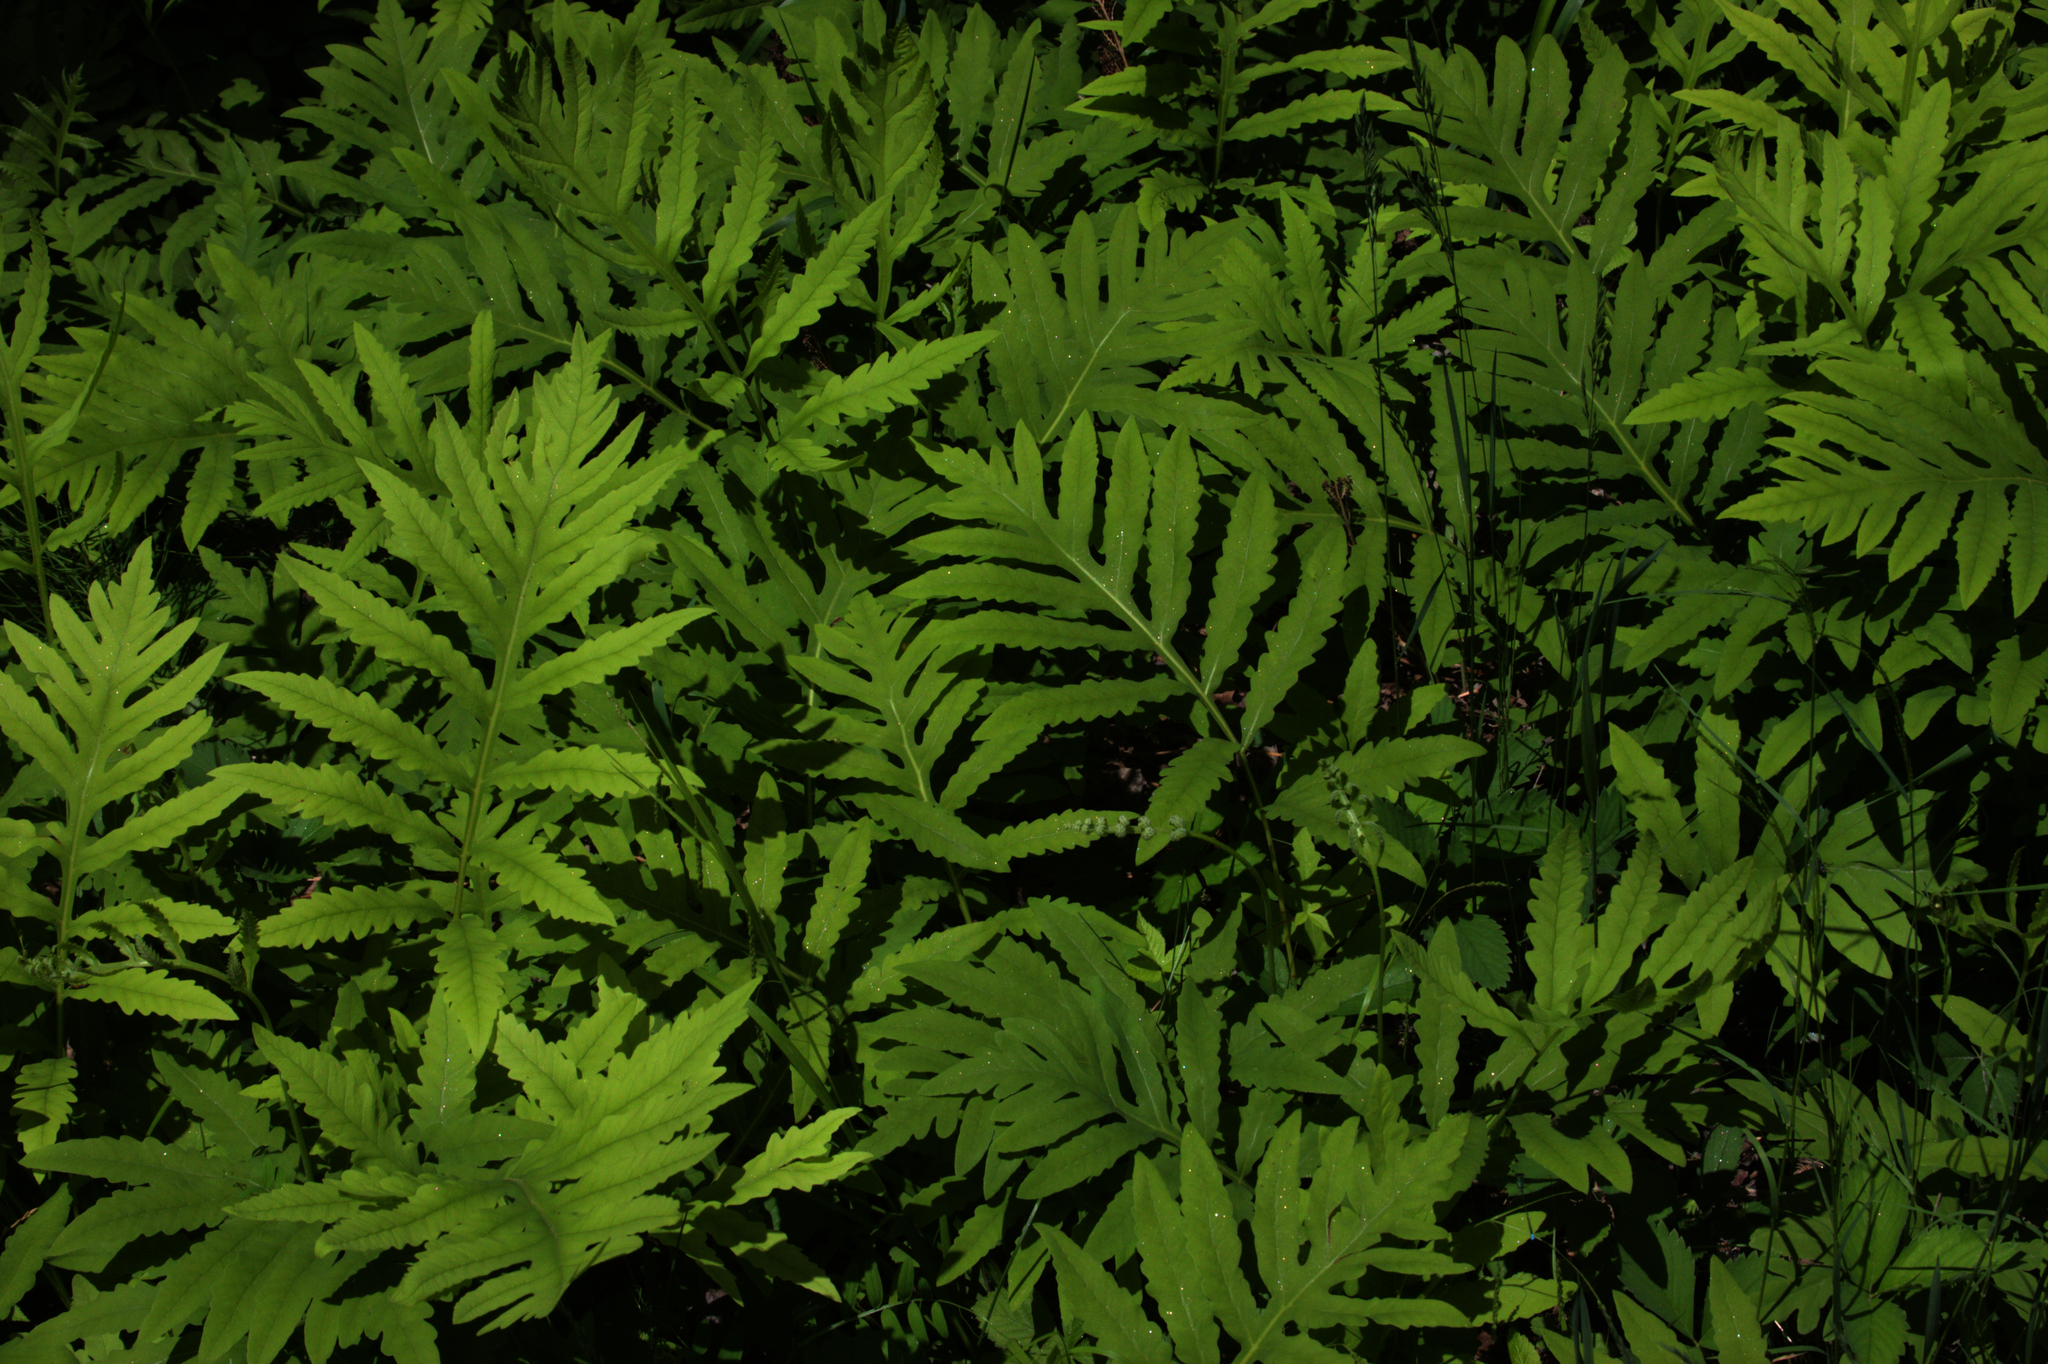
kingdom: Plantae
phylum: Tracheophyta
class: Polypodiopsida
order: Polypodiales
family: Onocleaceae
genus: Onoclea
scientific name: Onoclea sensibilis
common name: Sensitive fern
